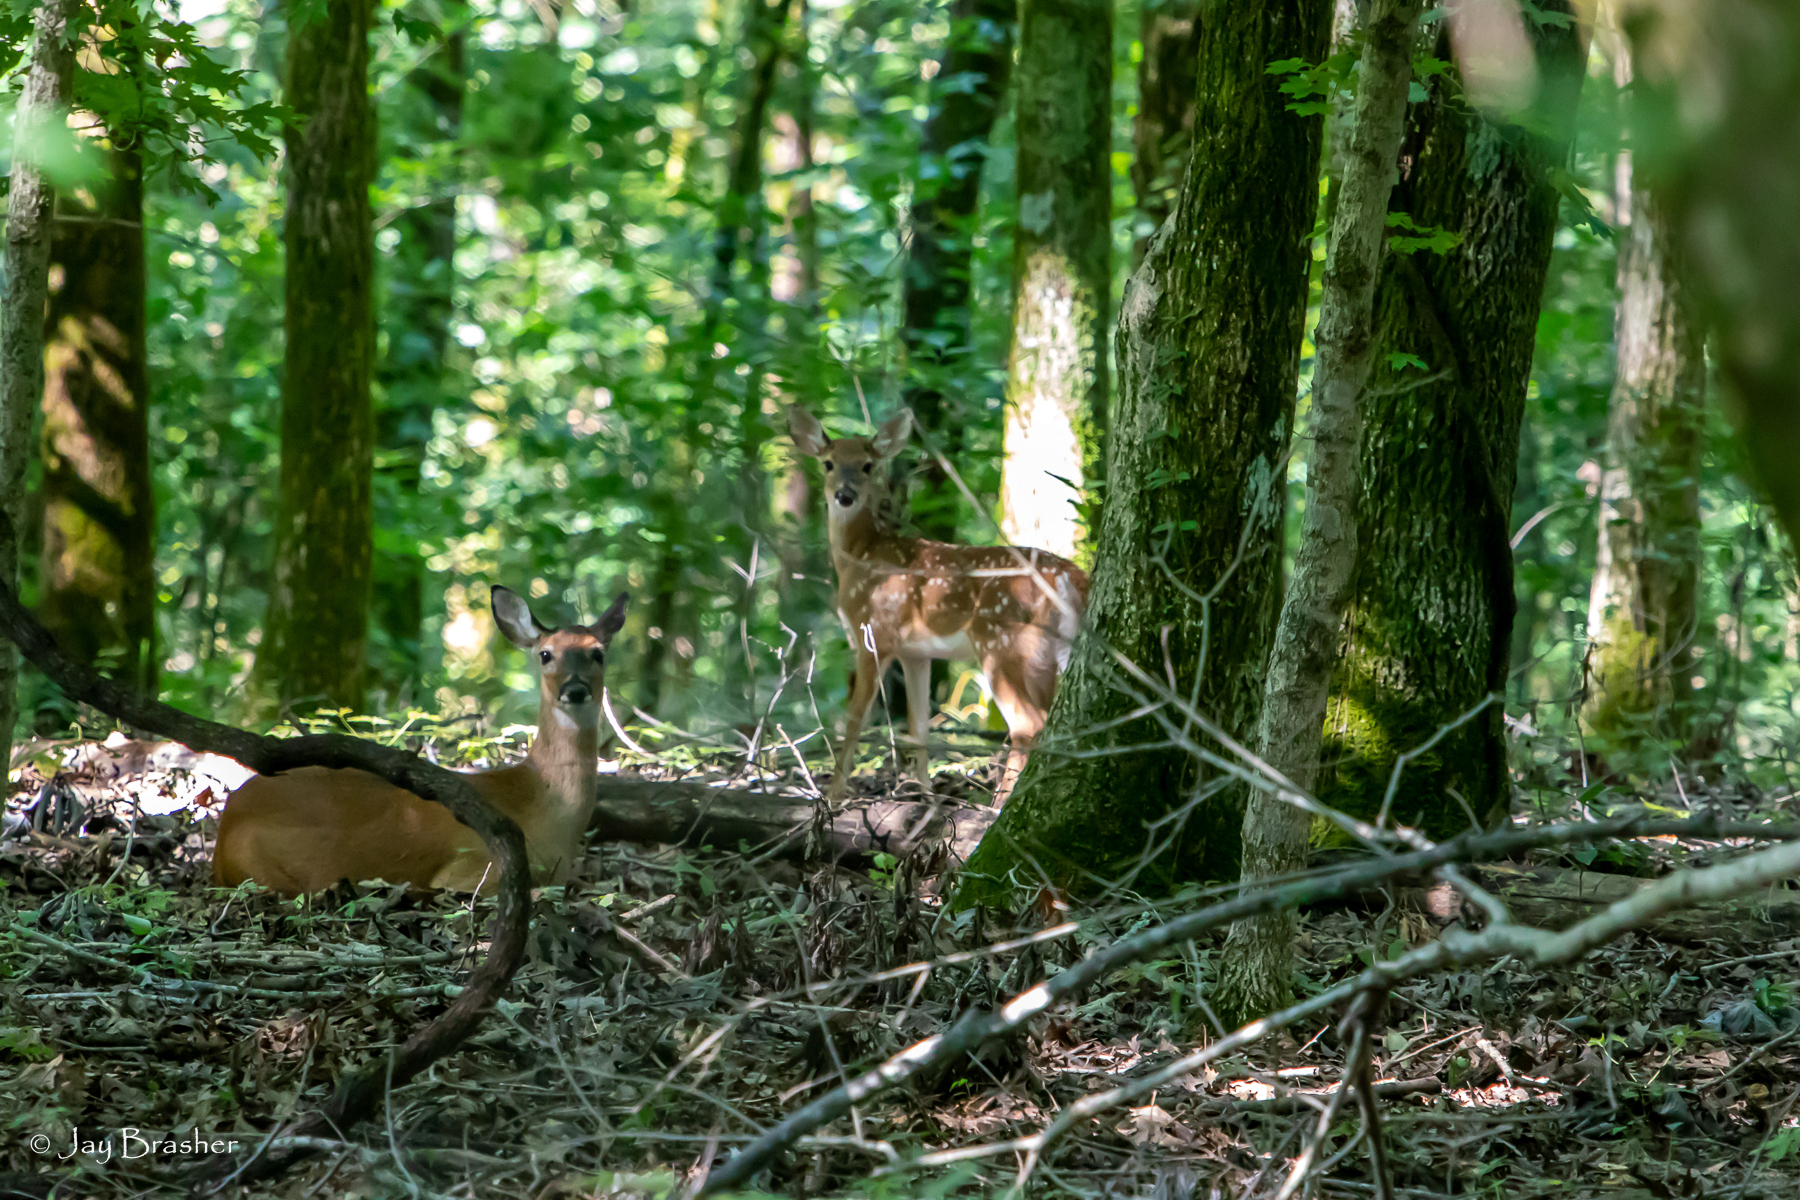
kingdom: Animalia
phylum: Chordata
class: Mammalia
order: Artiodactyla
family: Cervidae
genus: Odocoileus
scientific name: Odocoileus virginianus
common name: White-tailed deer
